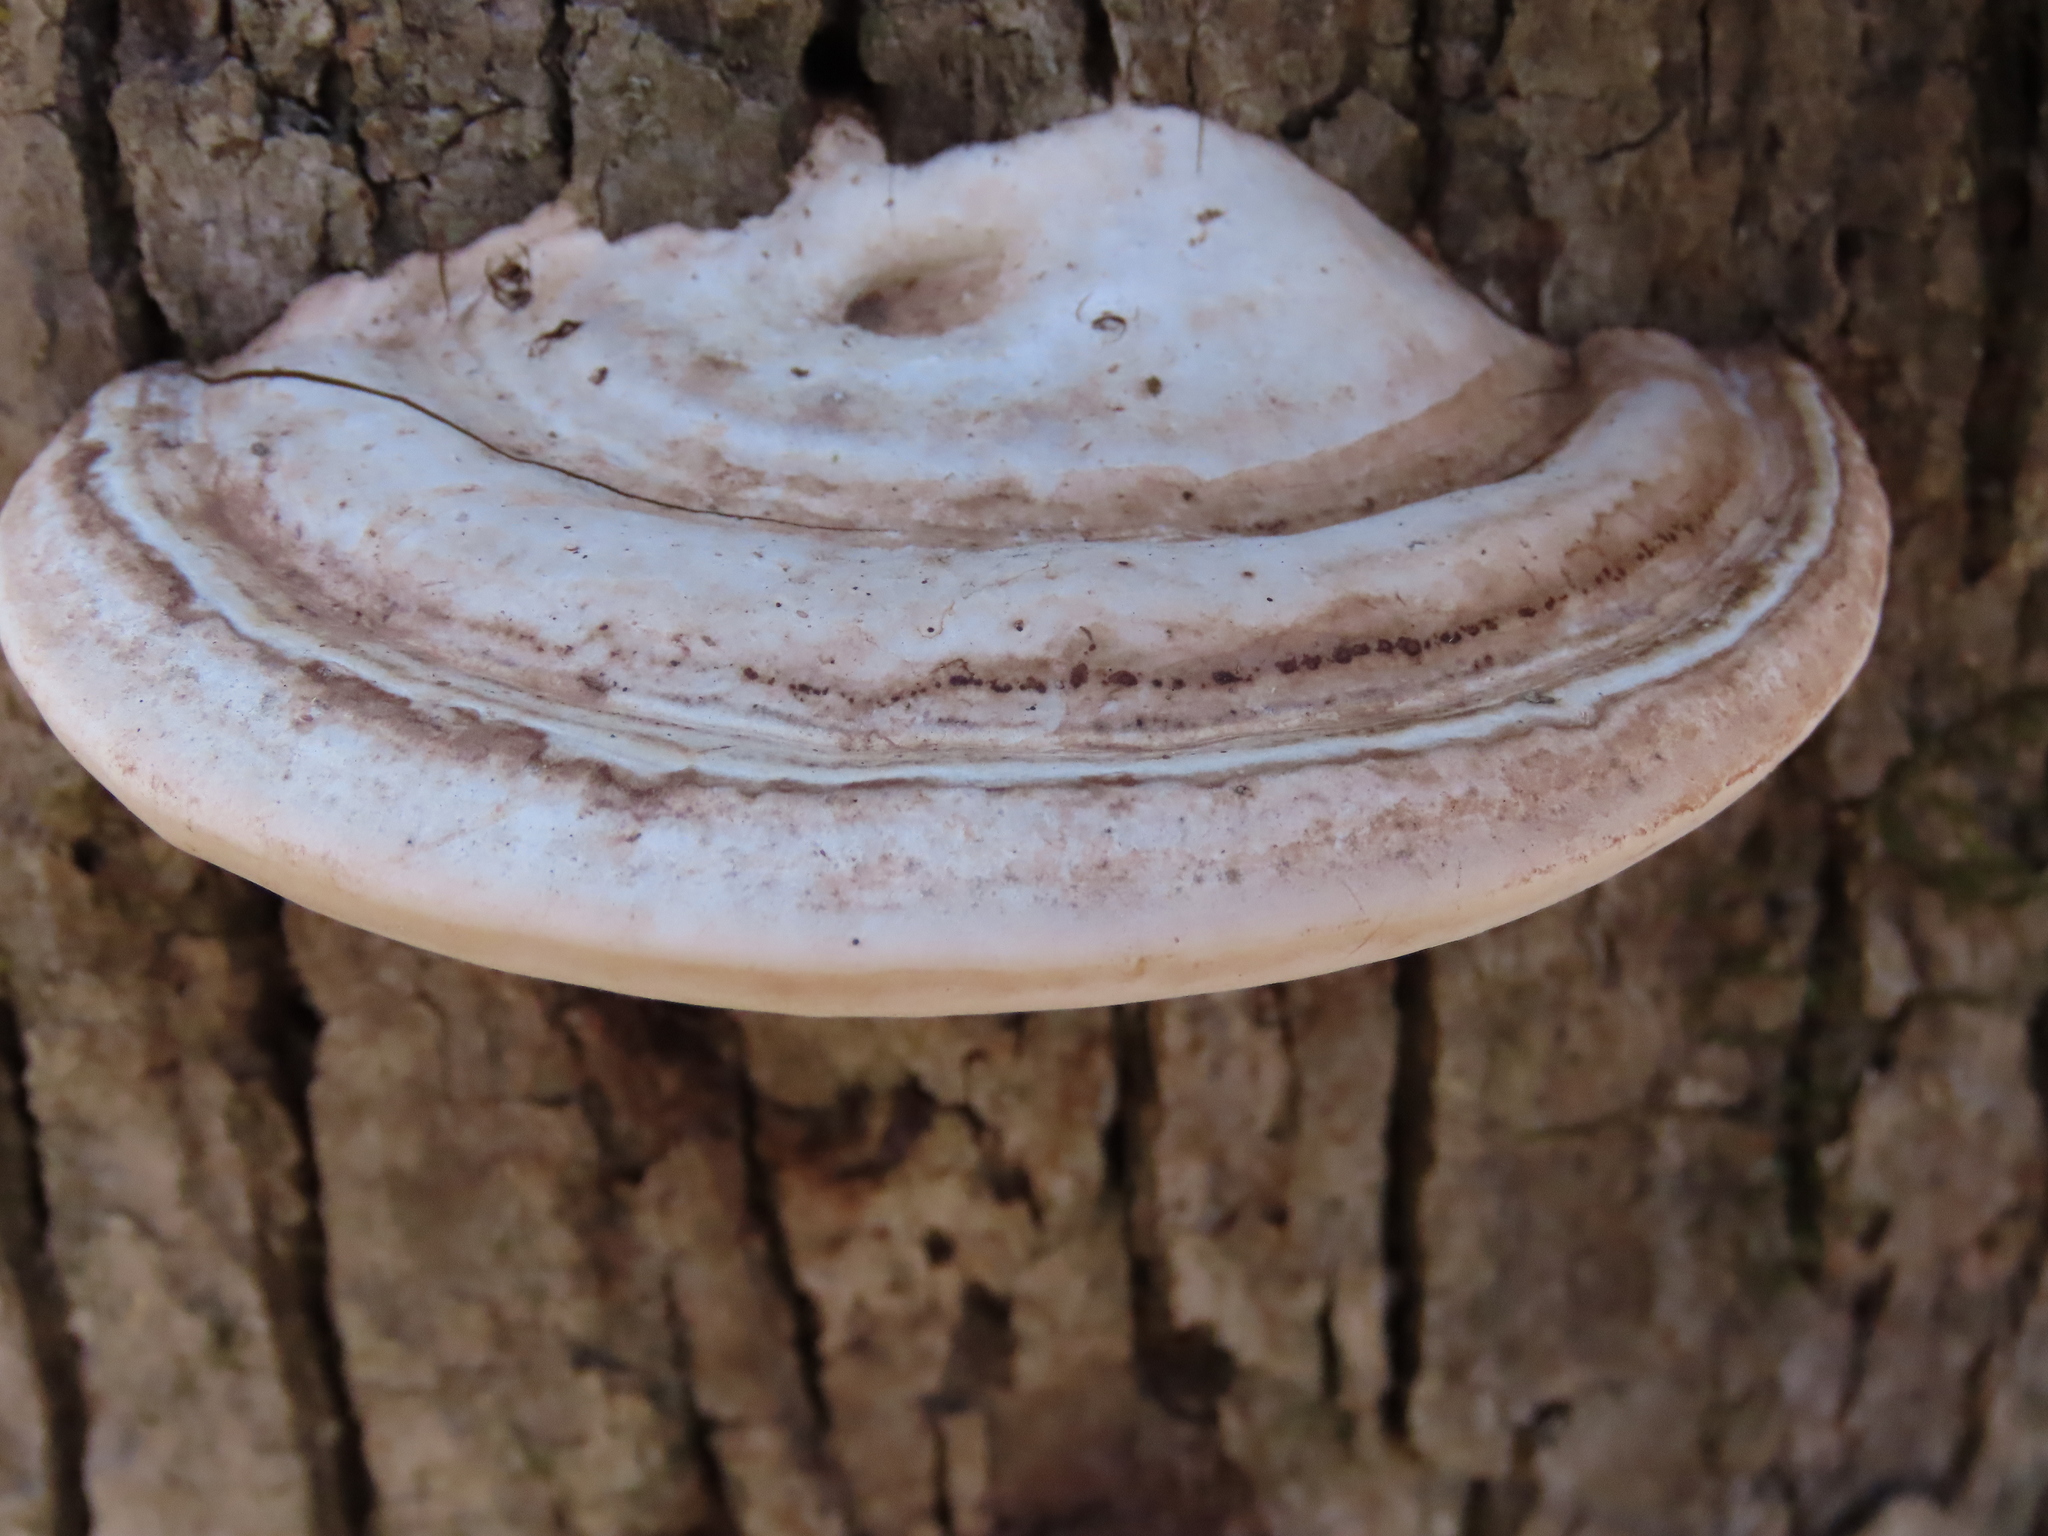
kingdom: Fungi
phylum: Basidiomycota
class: Agaricomycetes
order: Polyporales
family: Polyporaceae
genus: Ganoderma
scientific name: Ganoderma applanatum
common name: Artist's bracket
